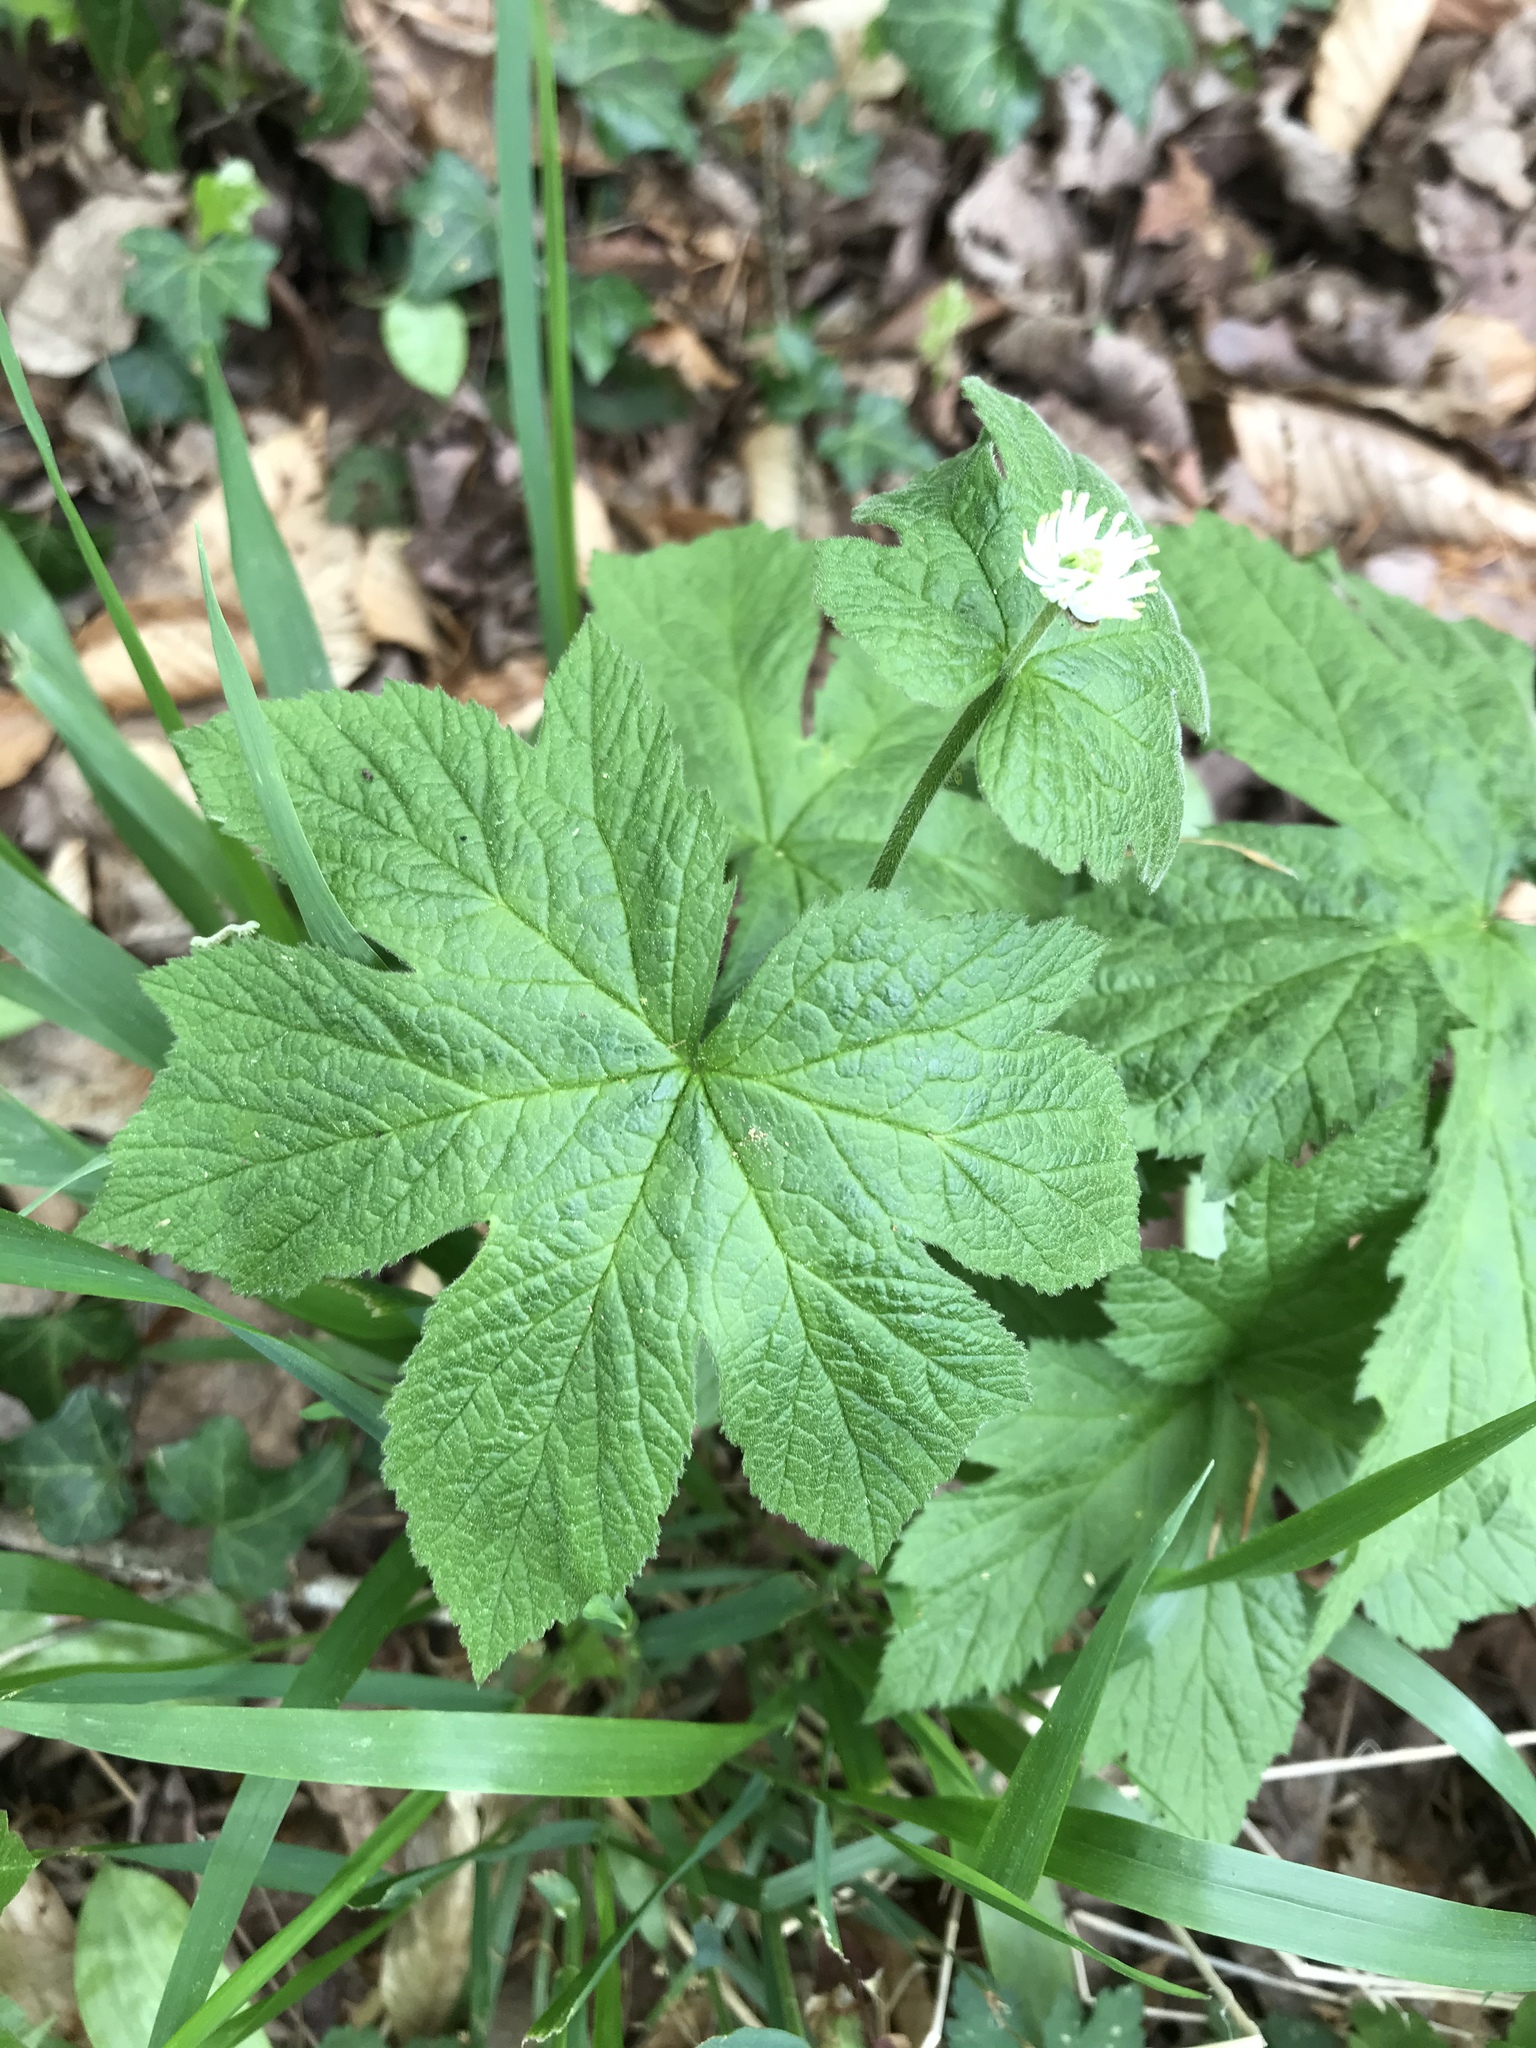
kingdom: Plantae
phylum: Tracheophyta
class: Magnoliopsida
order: Ranunculales
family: Ranunculaceae
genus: Hydrastis
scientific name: Hydrastis canadensis
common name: Goldenseal
